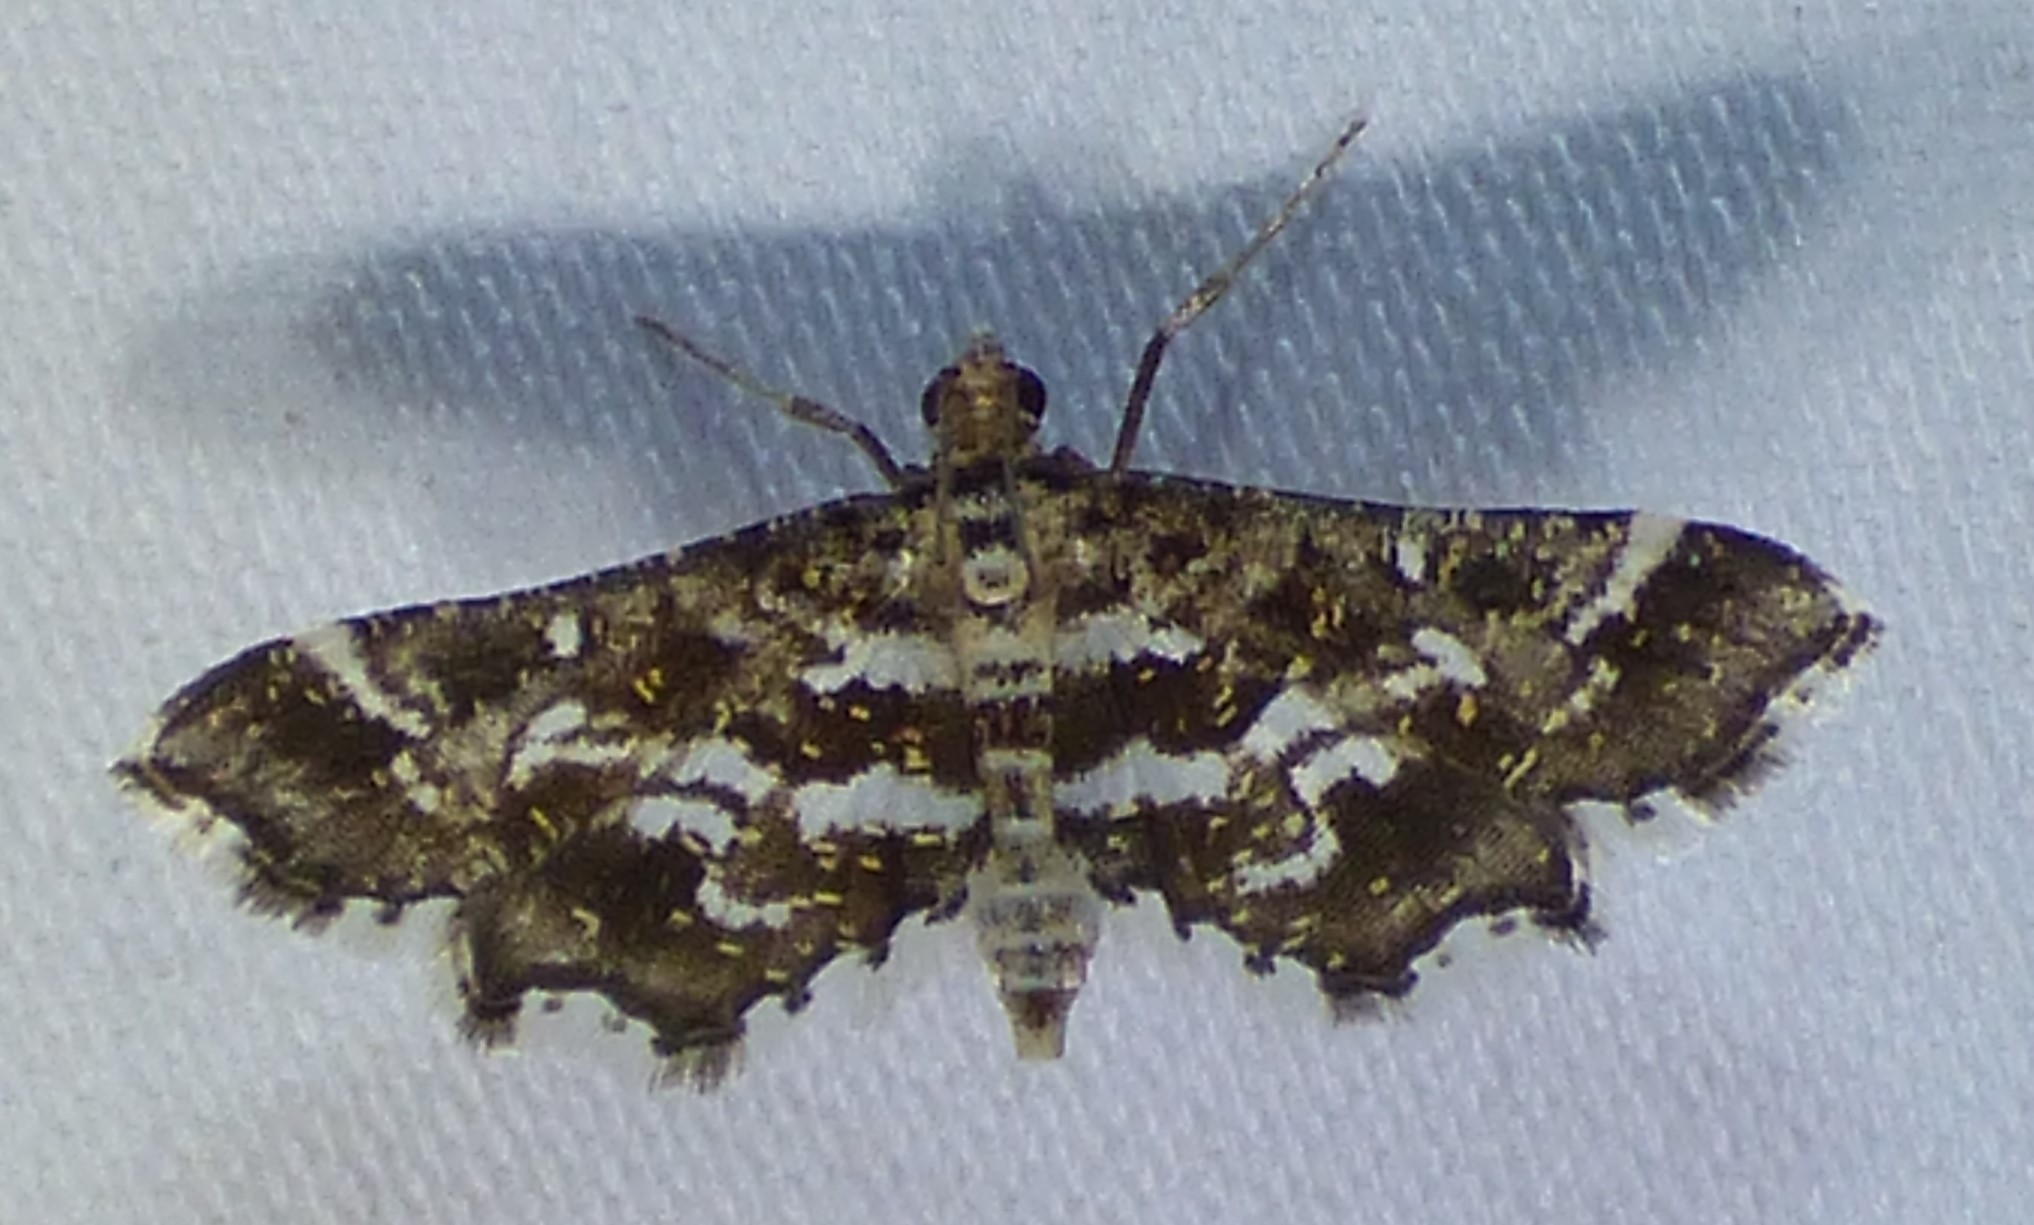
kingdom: Animalia
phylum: Arthropoda
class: Insecta
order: Lepidoptera
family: Crambidae
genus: Diasemiopsis
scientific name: Diasemiopsis ramburialis
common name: Vagrant china-mark
